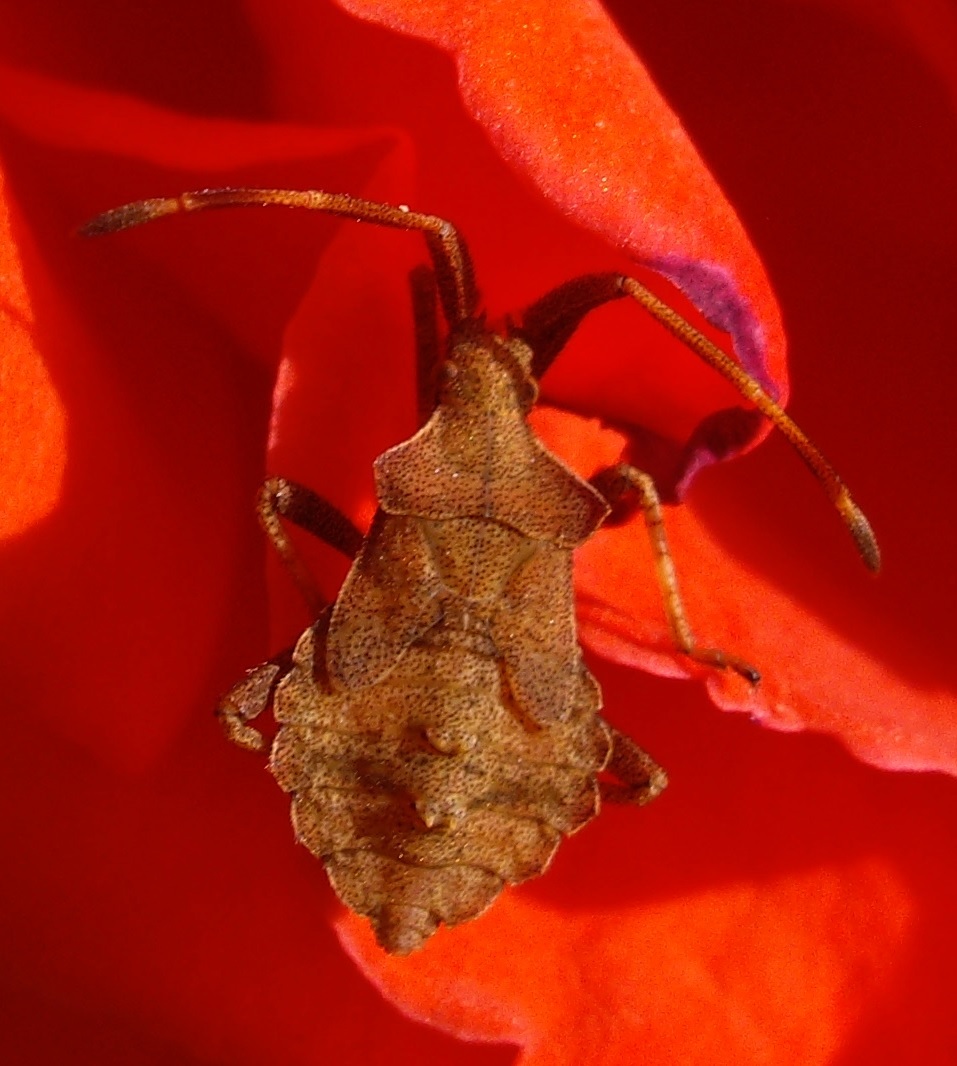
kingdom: Animalia
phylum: Arthropoda
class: Insecta
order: Hemiptera
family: Coreidae
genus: Coreus
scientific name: Coreus marginatus
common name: Dock bug
